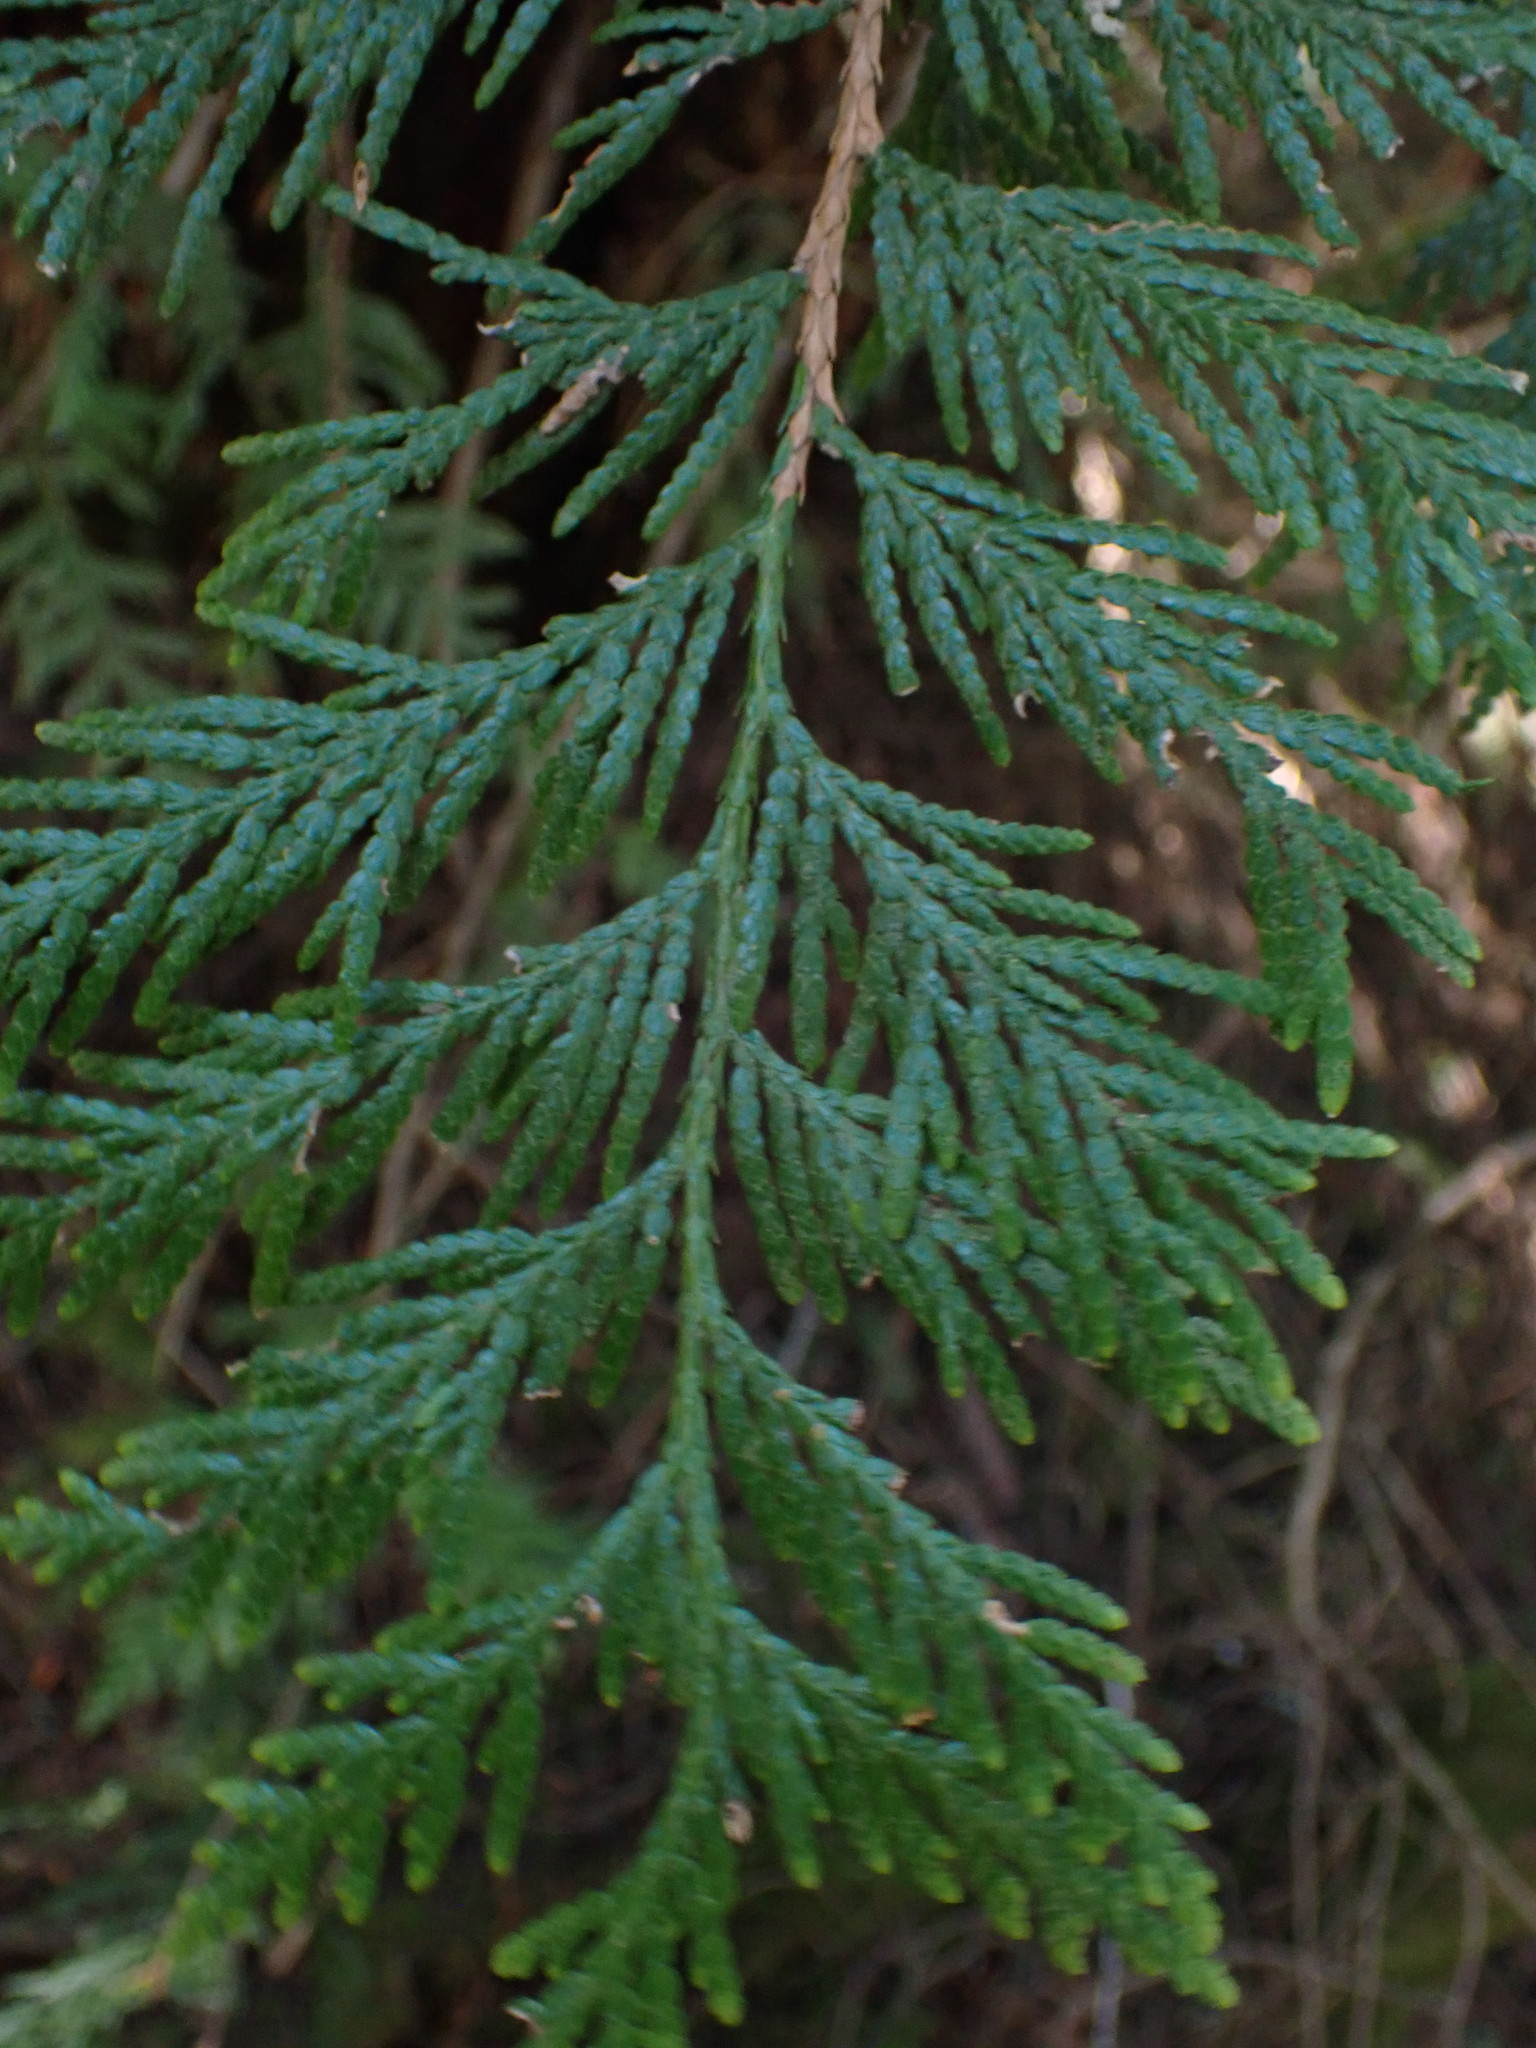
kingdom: Plantae
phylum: Tracheophyta
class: Pinopsida
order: Pinales
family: Cupressaceae
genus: Thuja
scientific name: Thuja plicata
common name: Western red-cedar
